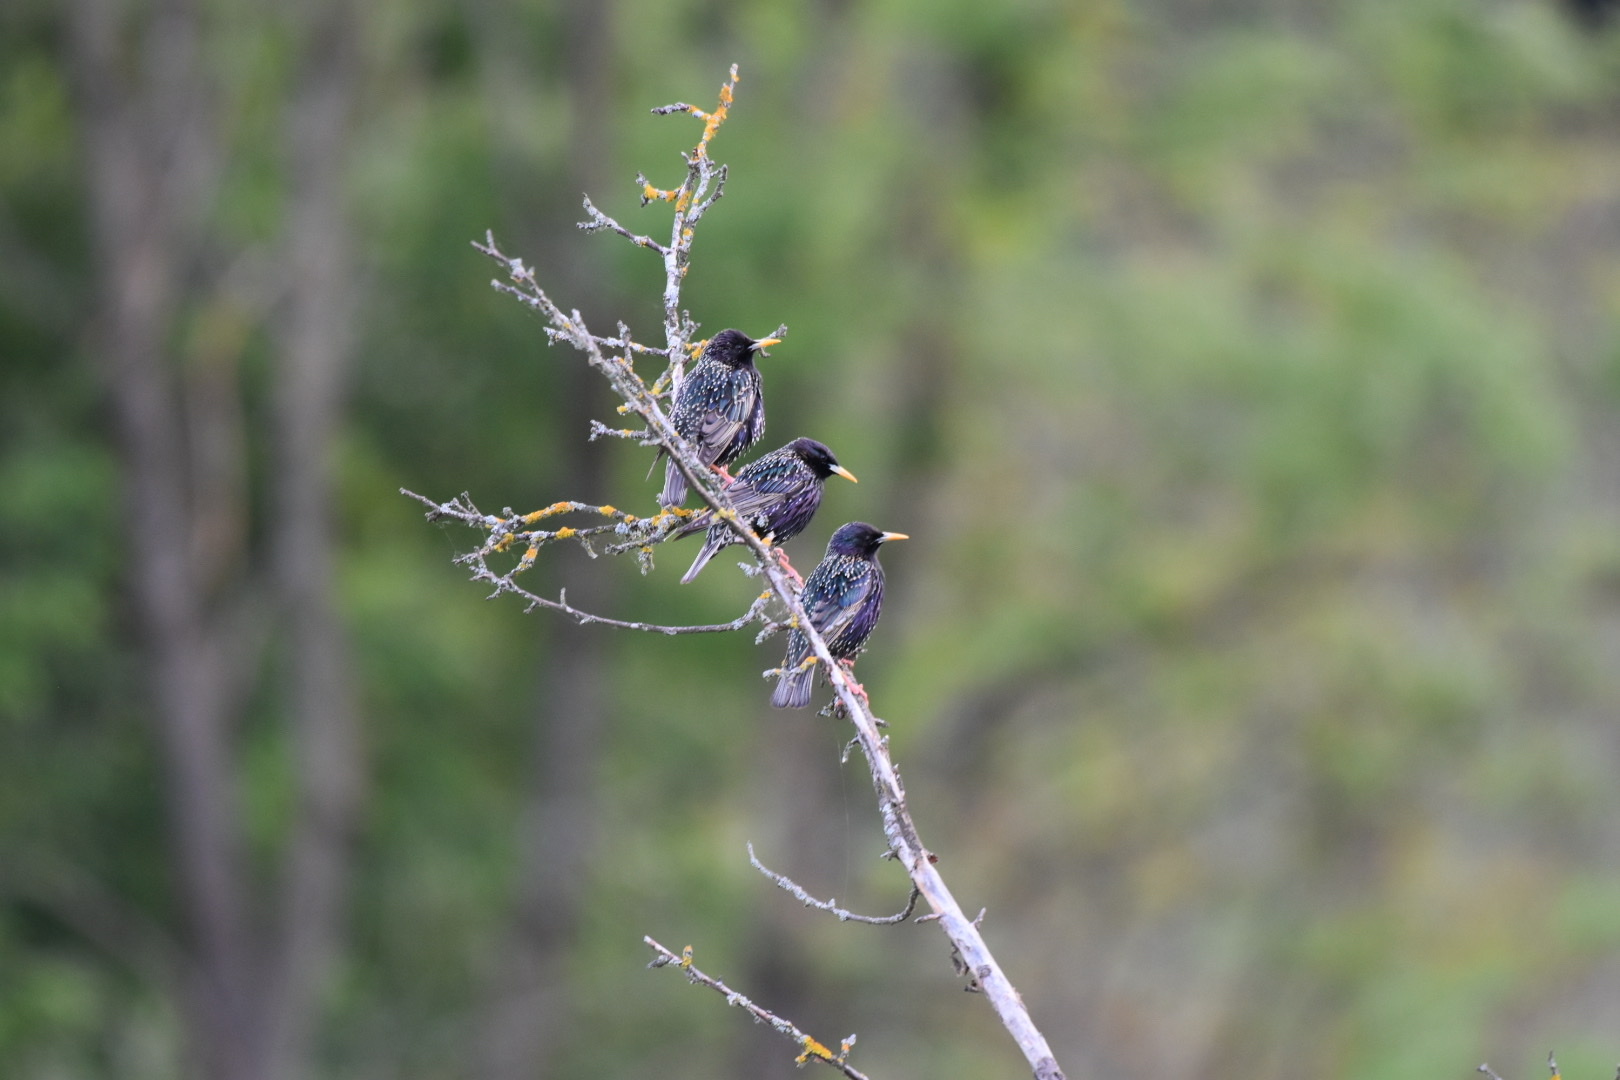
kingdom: Animalia
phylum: Chordata
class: Aves
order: Passeriformes
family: Sturnidae
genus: Sturnus
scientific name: Sturnus vulgaris
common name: Common starling
